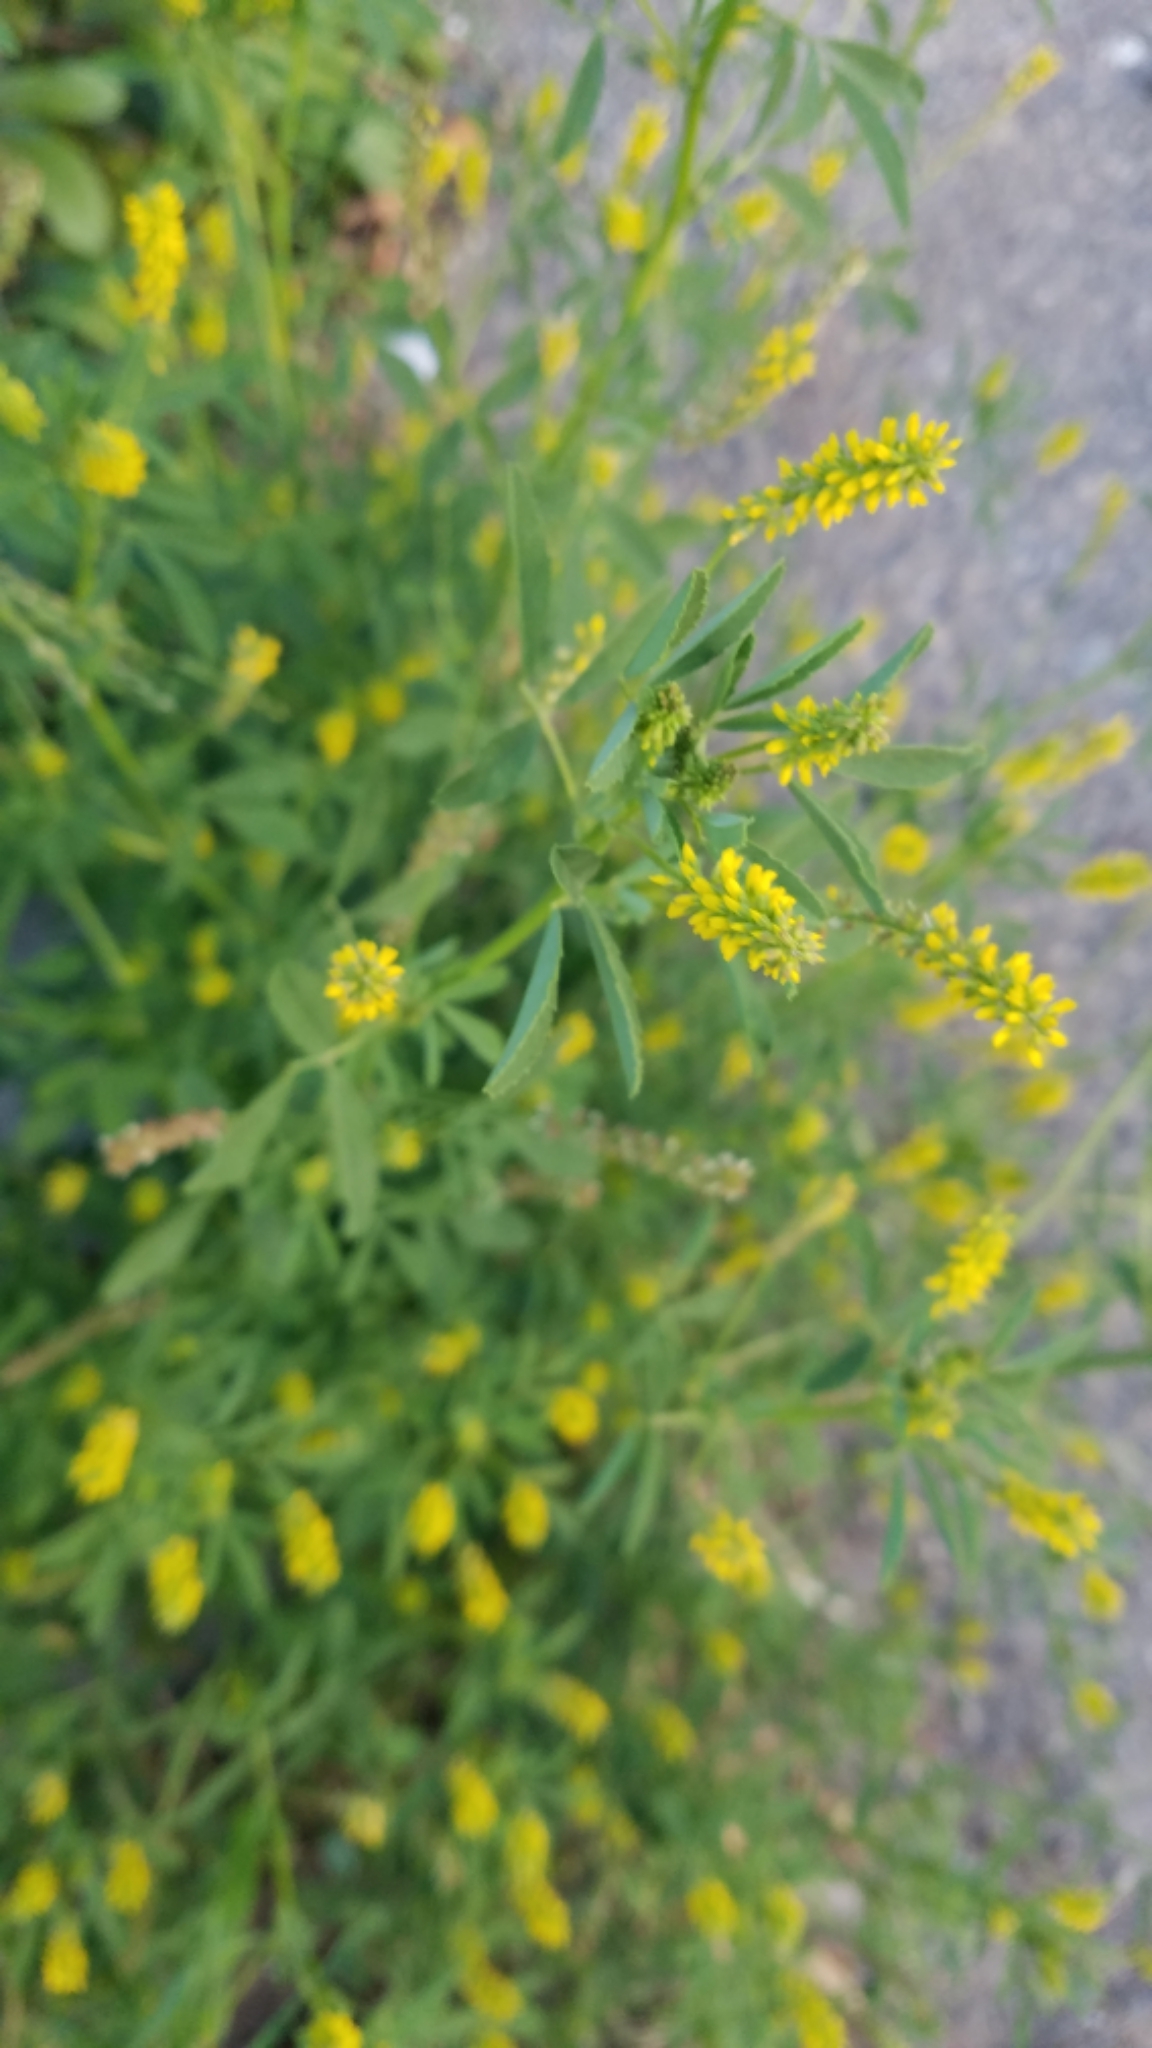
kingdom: Plantae
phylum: Tracheophyta
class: Magnoliopsida
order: Fabales
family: Fabaceae
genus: Melilotus
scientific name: Melilotus indicus
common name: Small melilot
